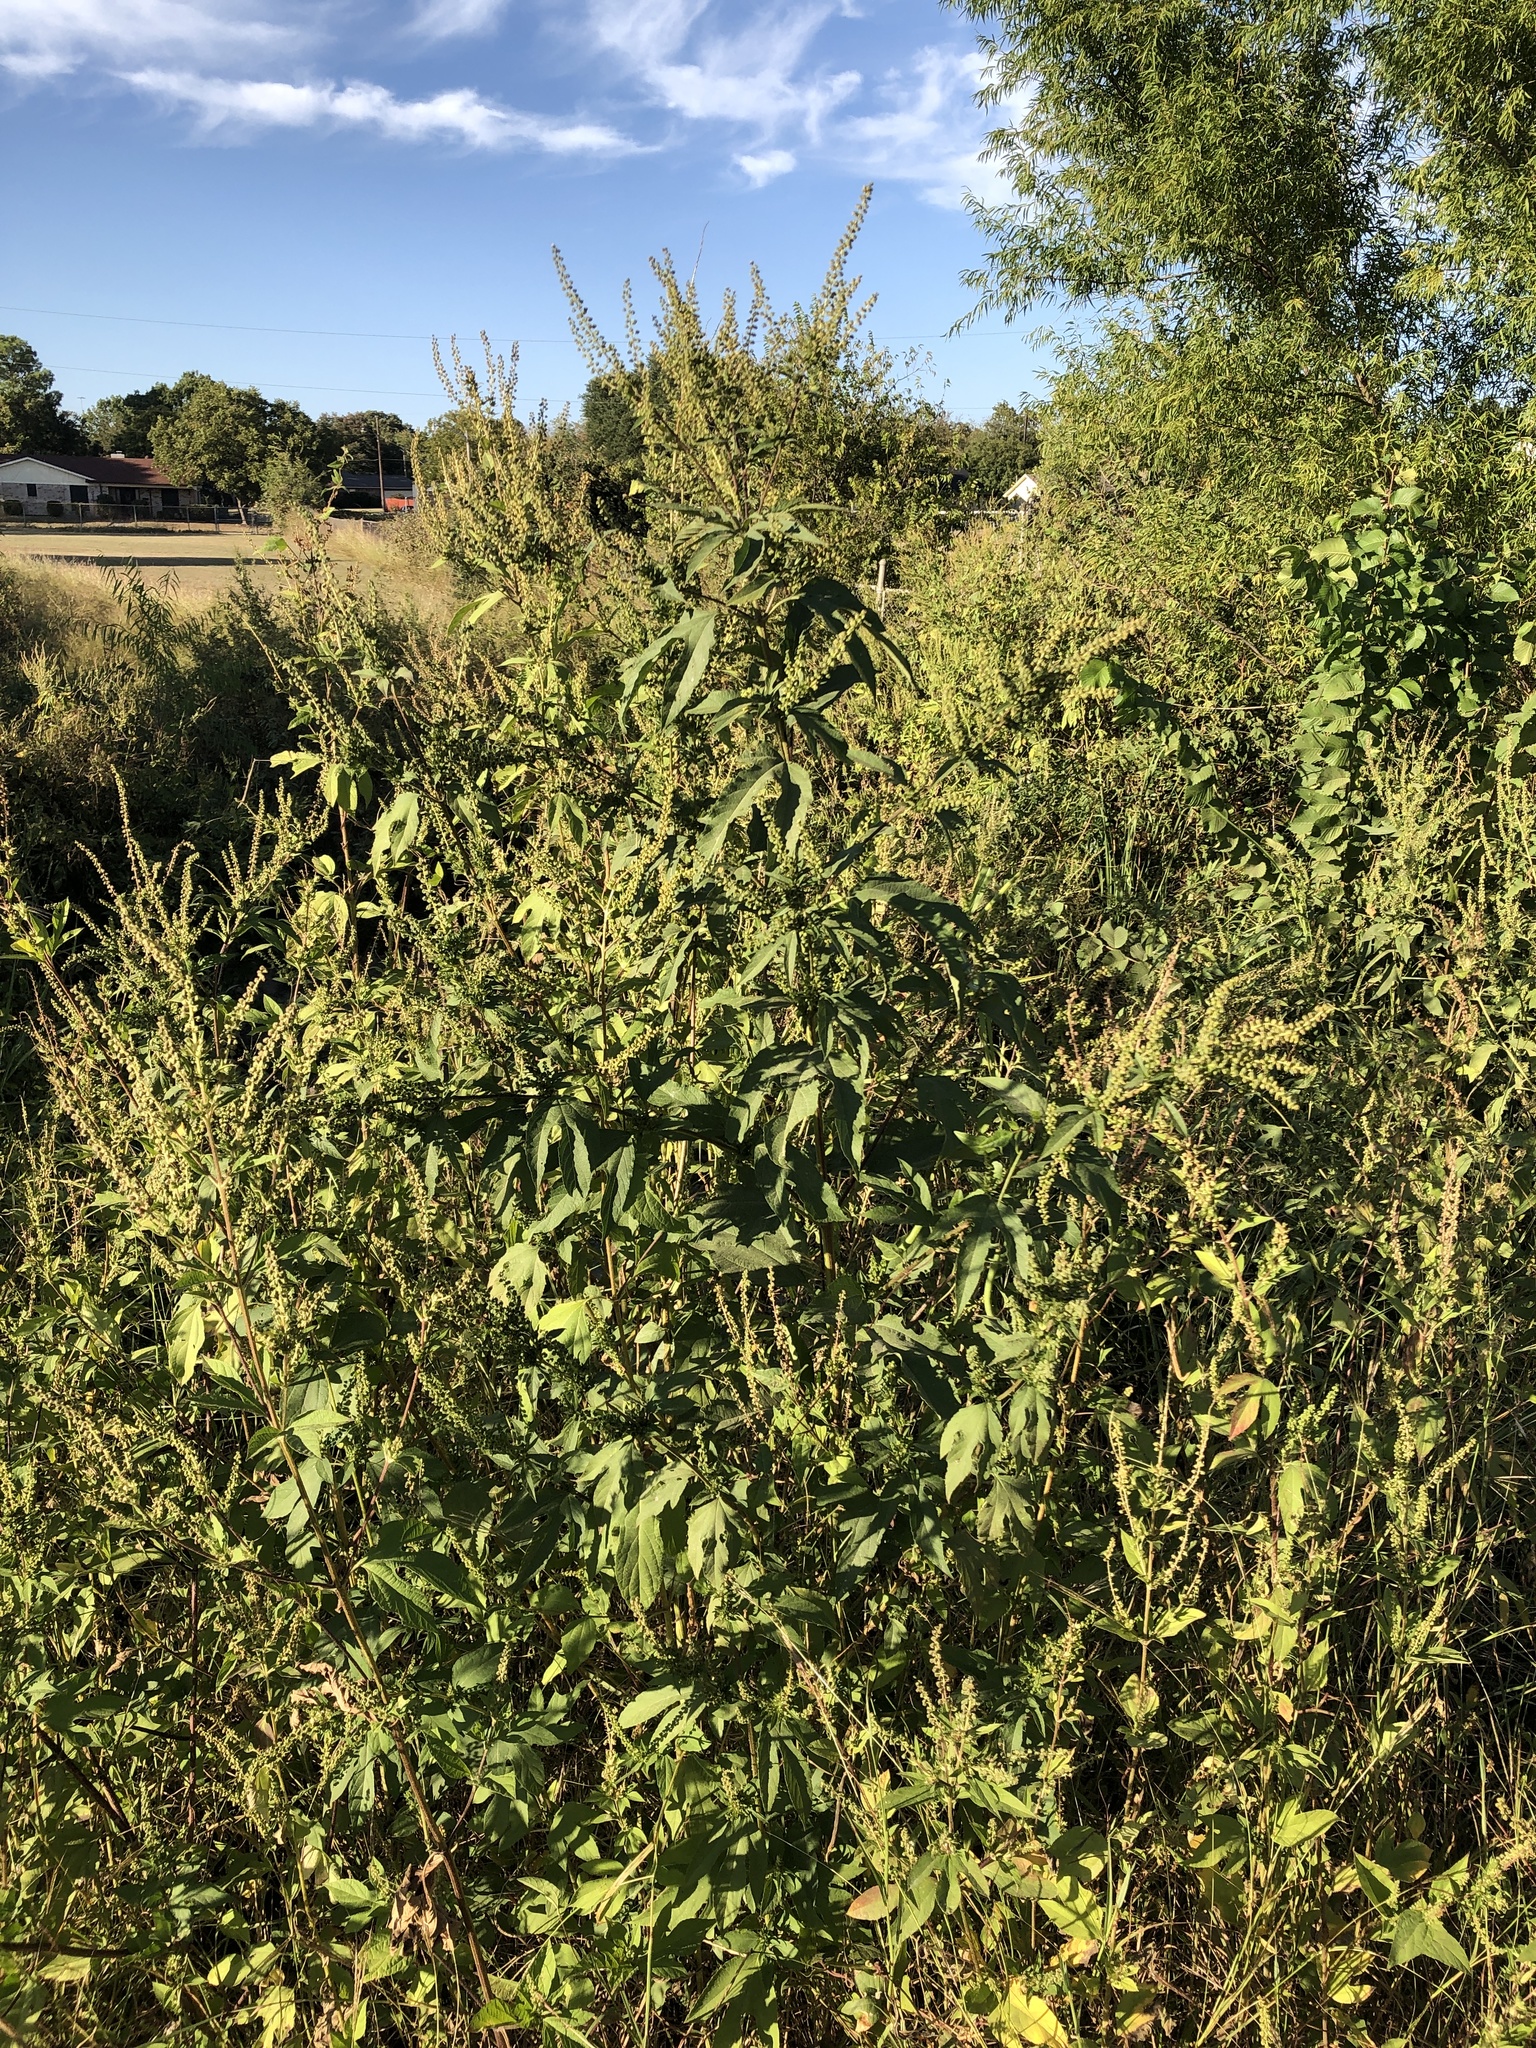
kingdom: Plantae
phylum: Tracheophyta
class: Magnoliopsida
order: Asterales
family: Asteraceae
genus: Ambrosia
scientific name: Ambrosia trifida
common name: Giant ragweed
